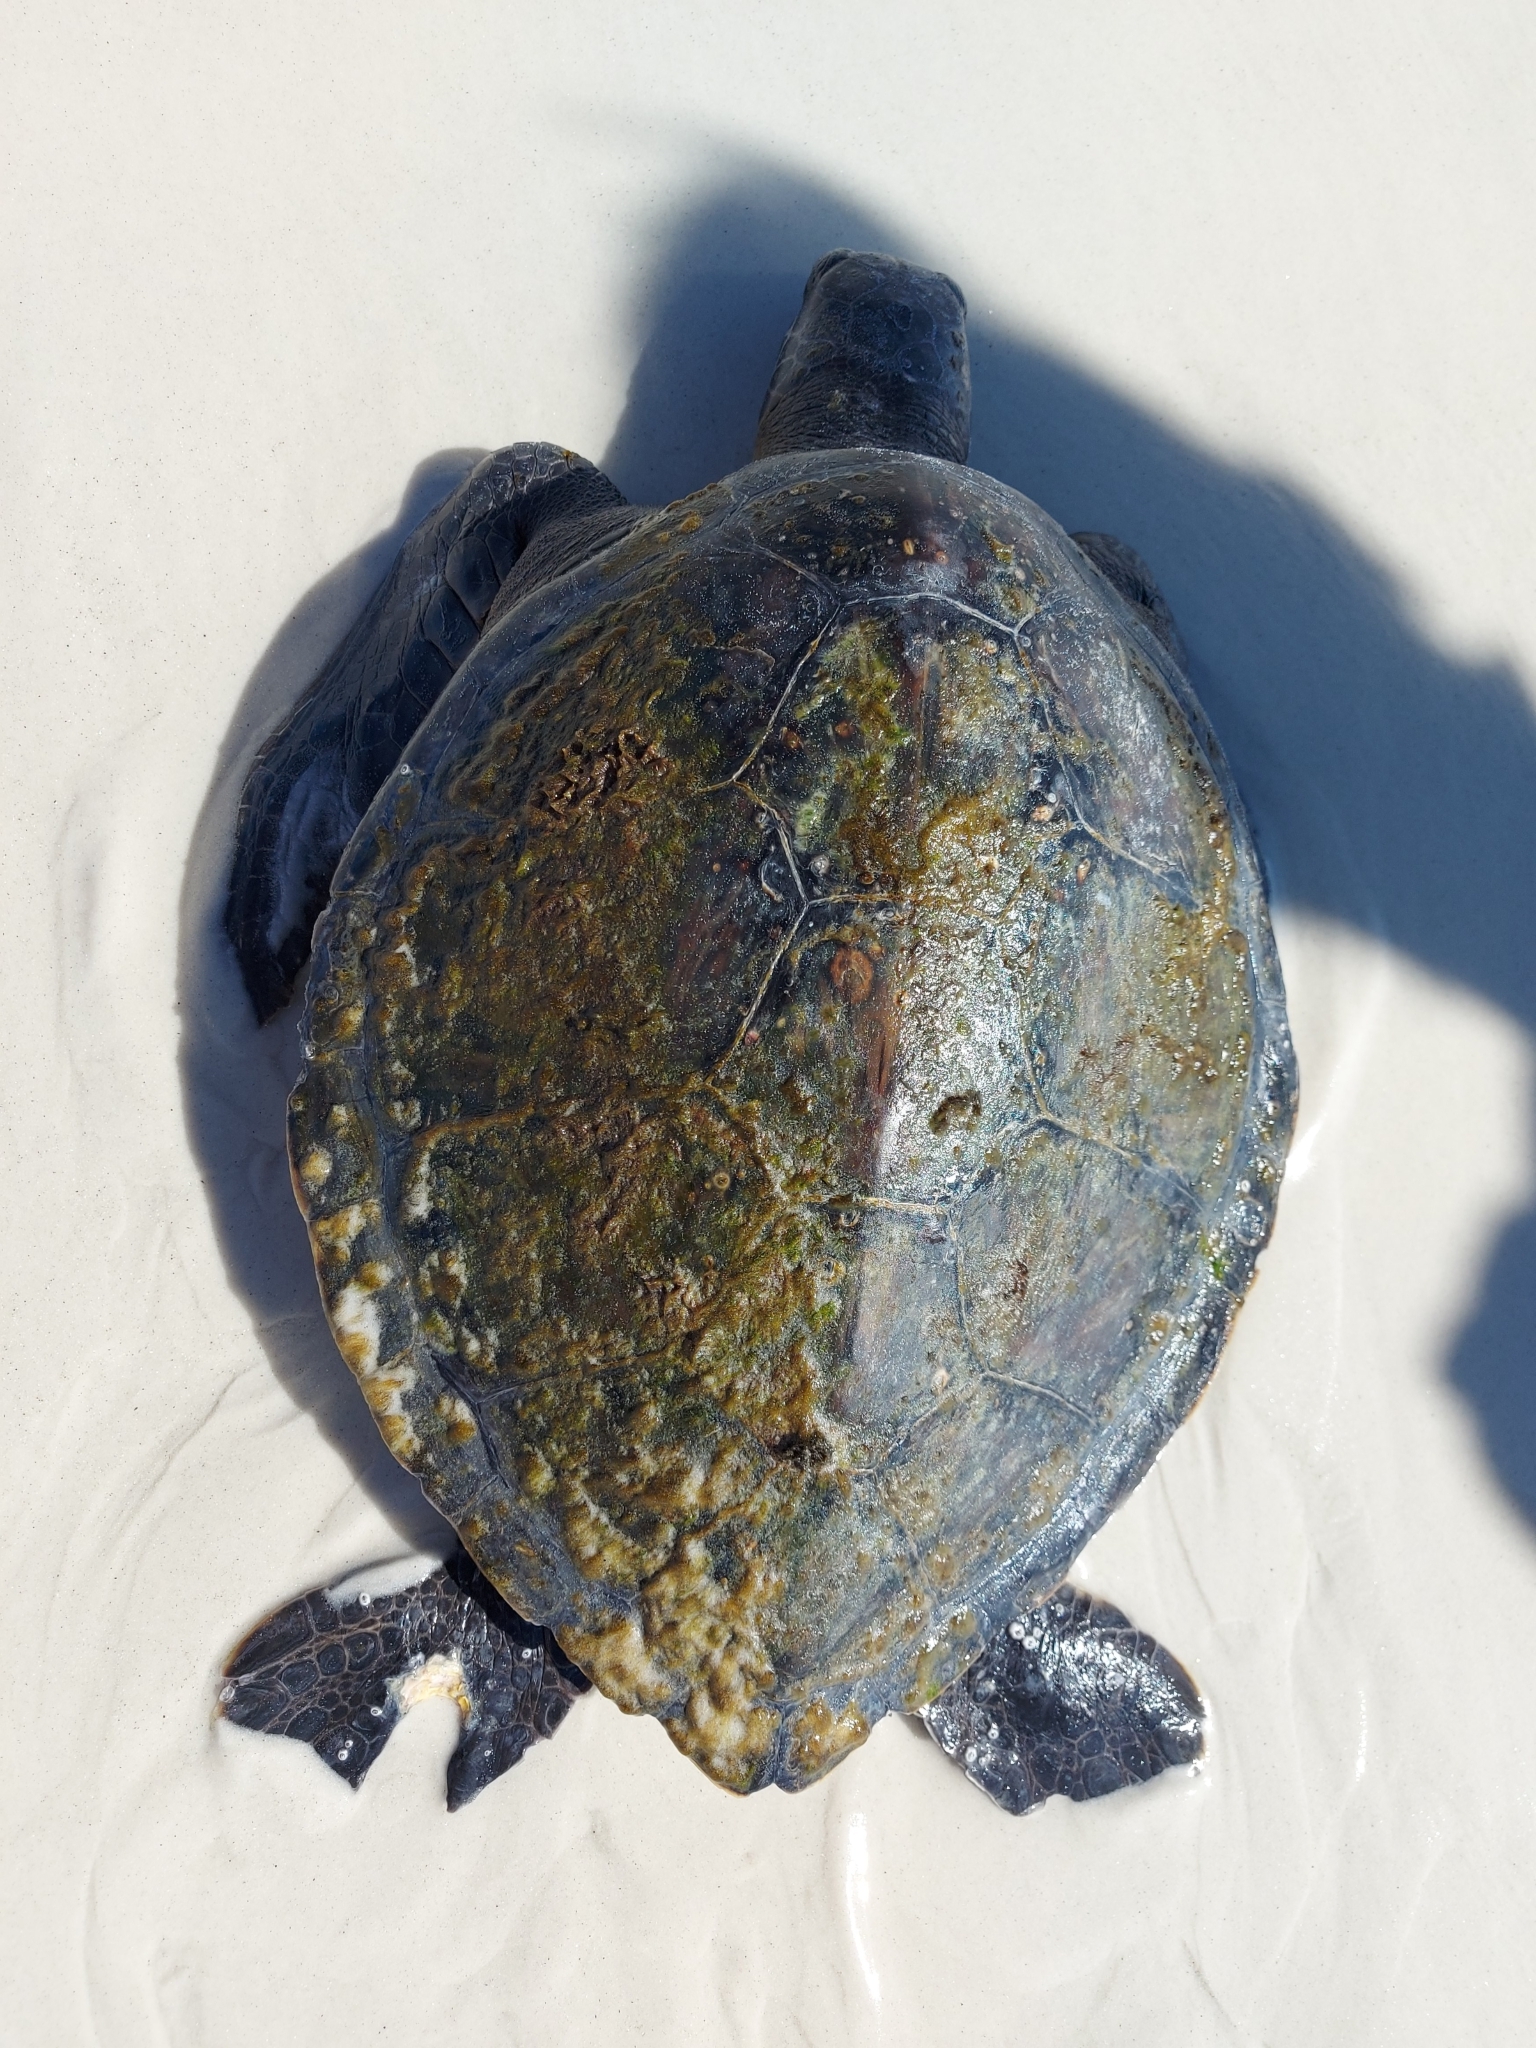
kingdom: Animalia
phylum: Chordata
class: Testudines
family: Cheloniidae
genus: Chelonia
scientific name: Chelonia mydas
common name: Green turtle
